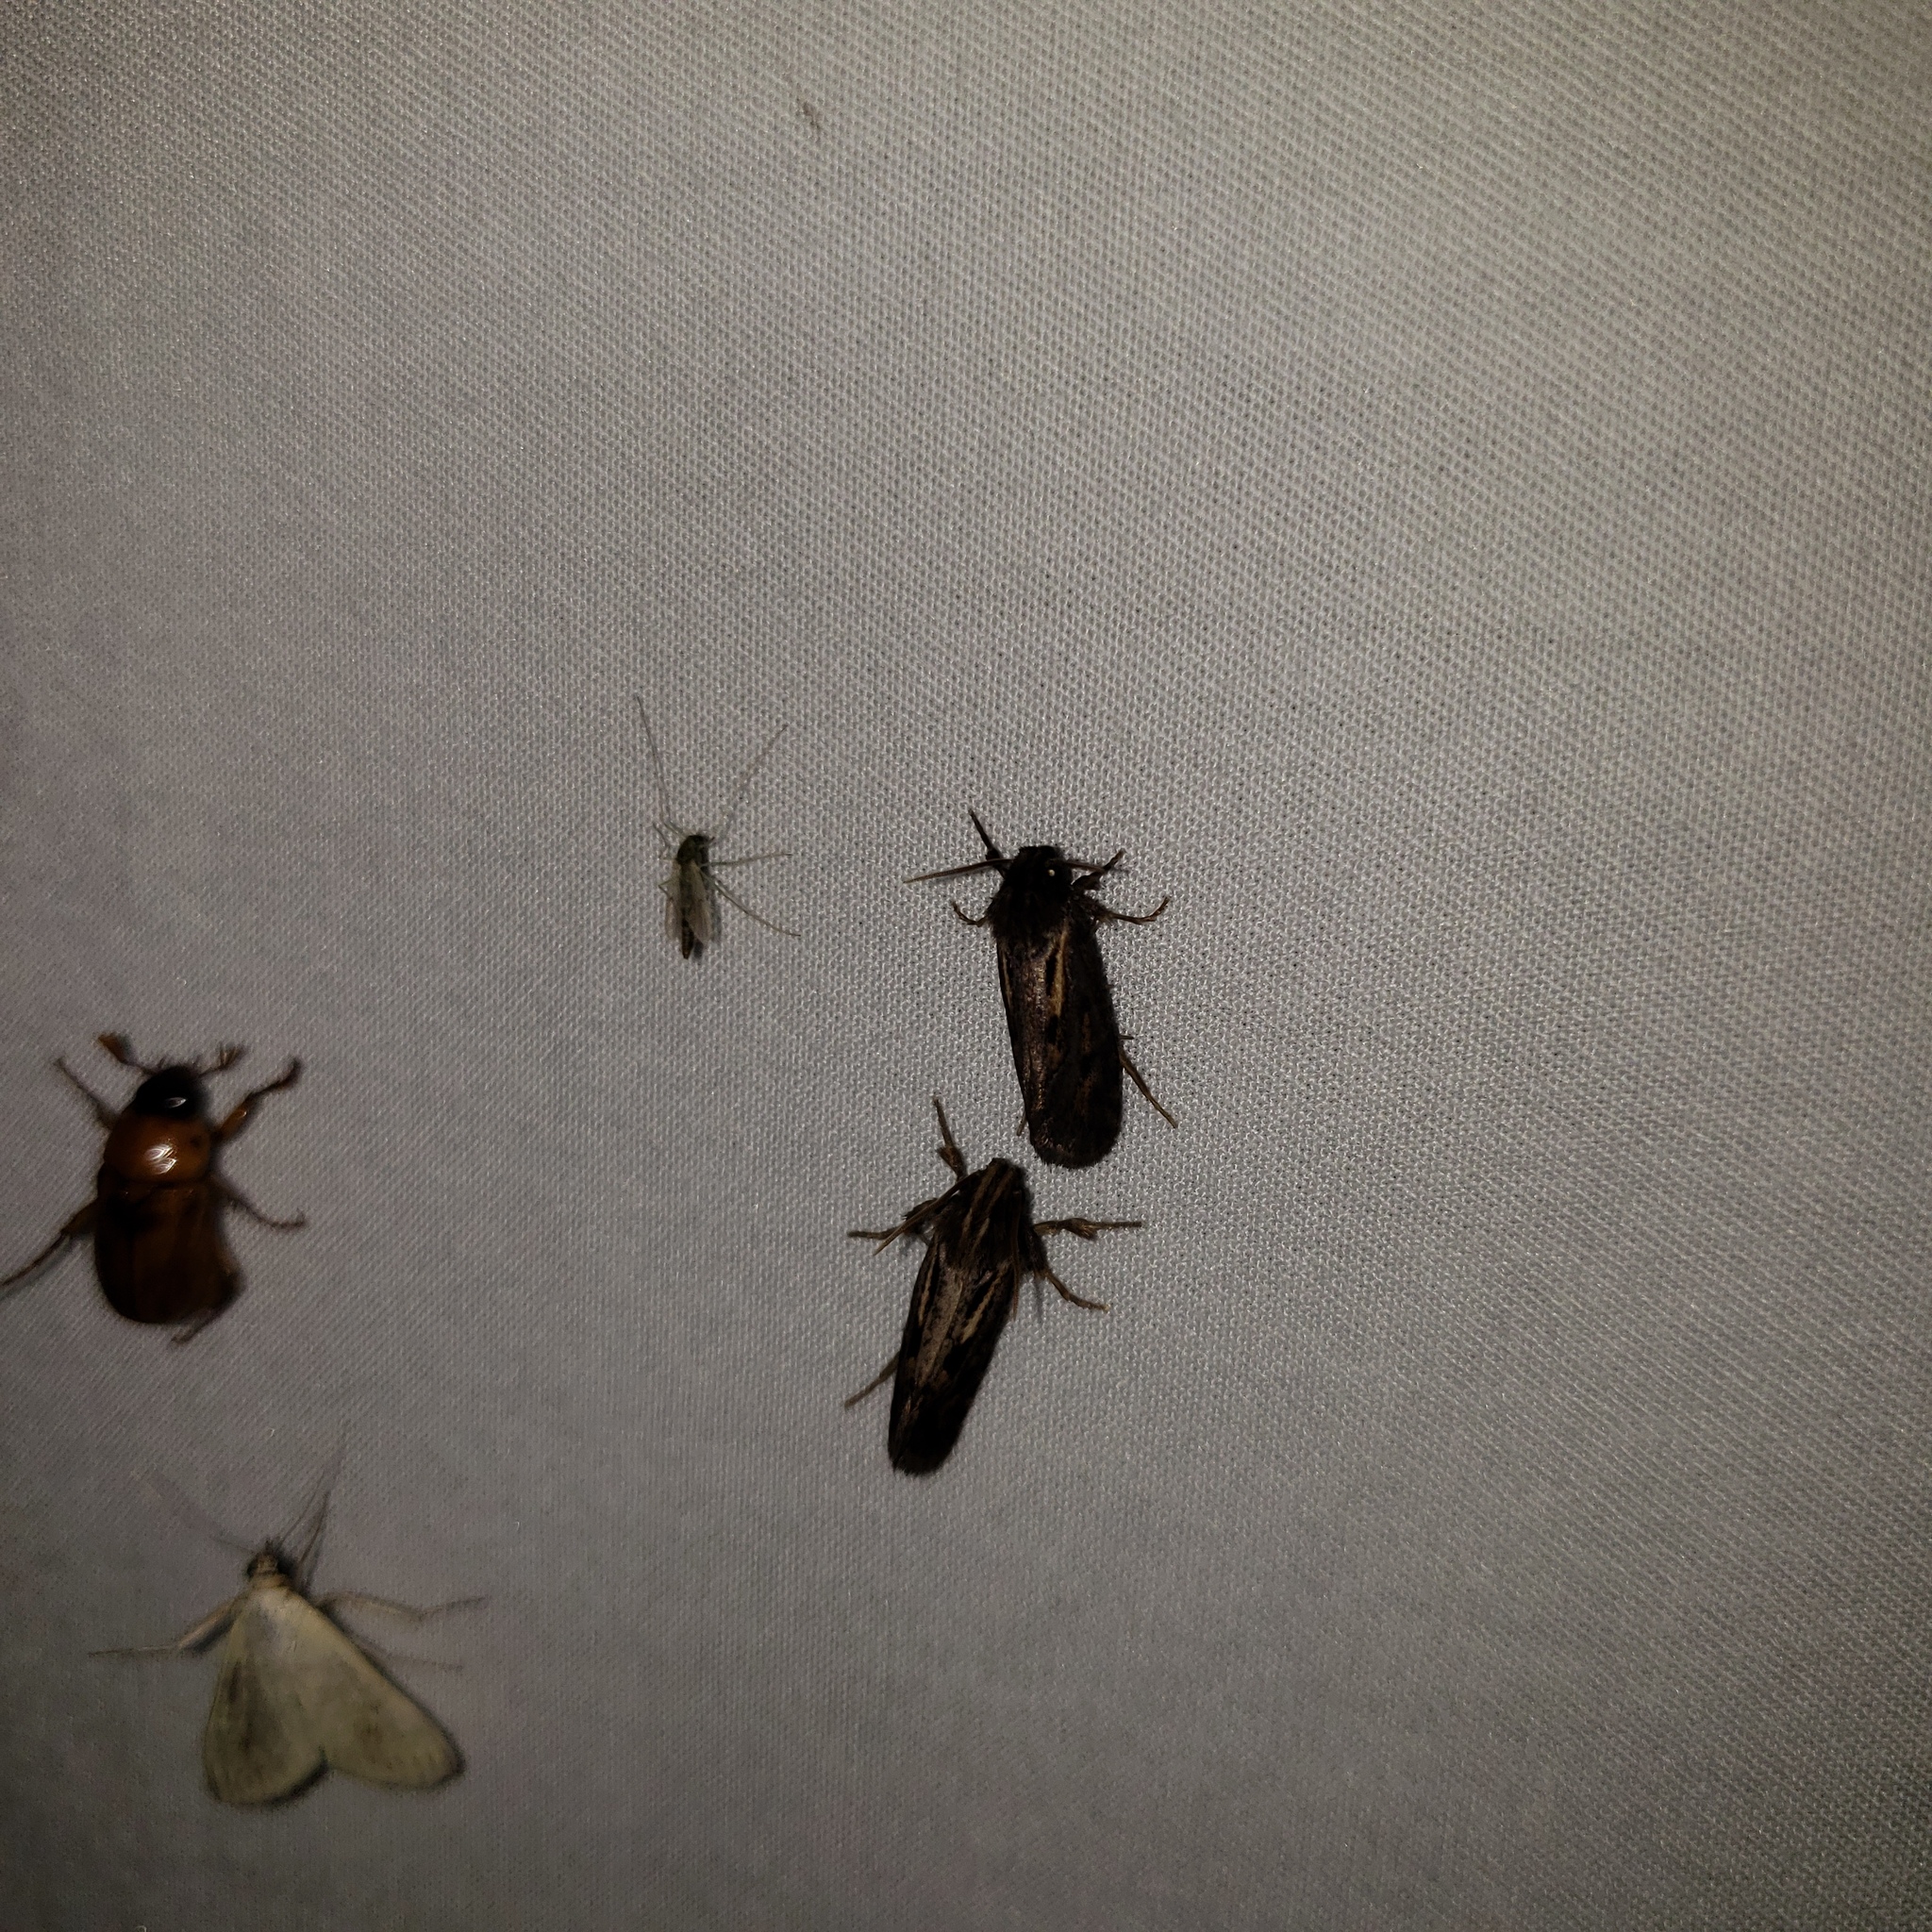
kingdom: Animalia
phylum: Arthropoda
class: Insecta
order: Lepidoptera
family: Tineidae
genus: Acrolophus
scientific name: Acrolophus popeanella
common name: Clemens' grass tubeworm moth
